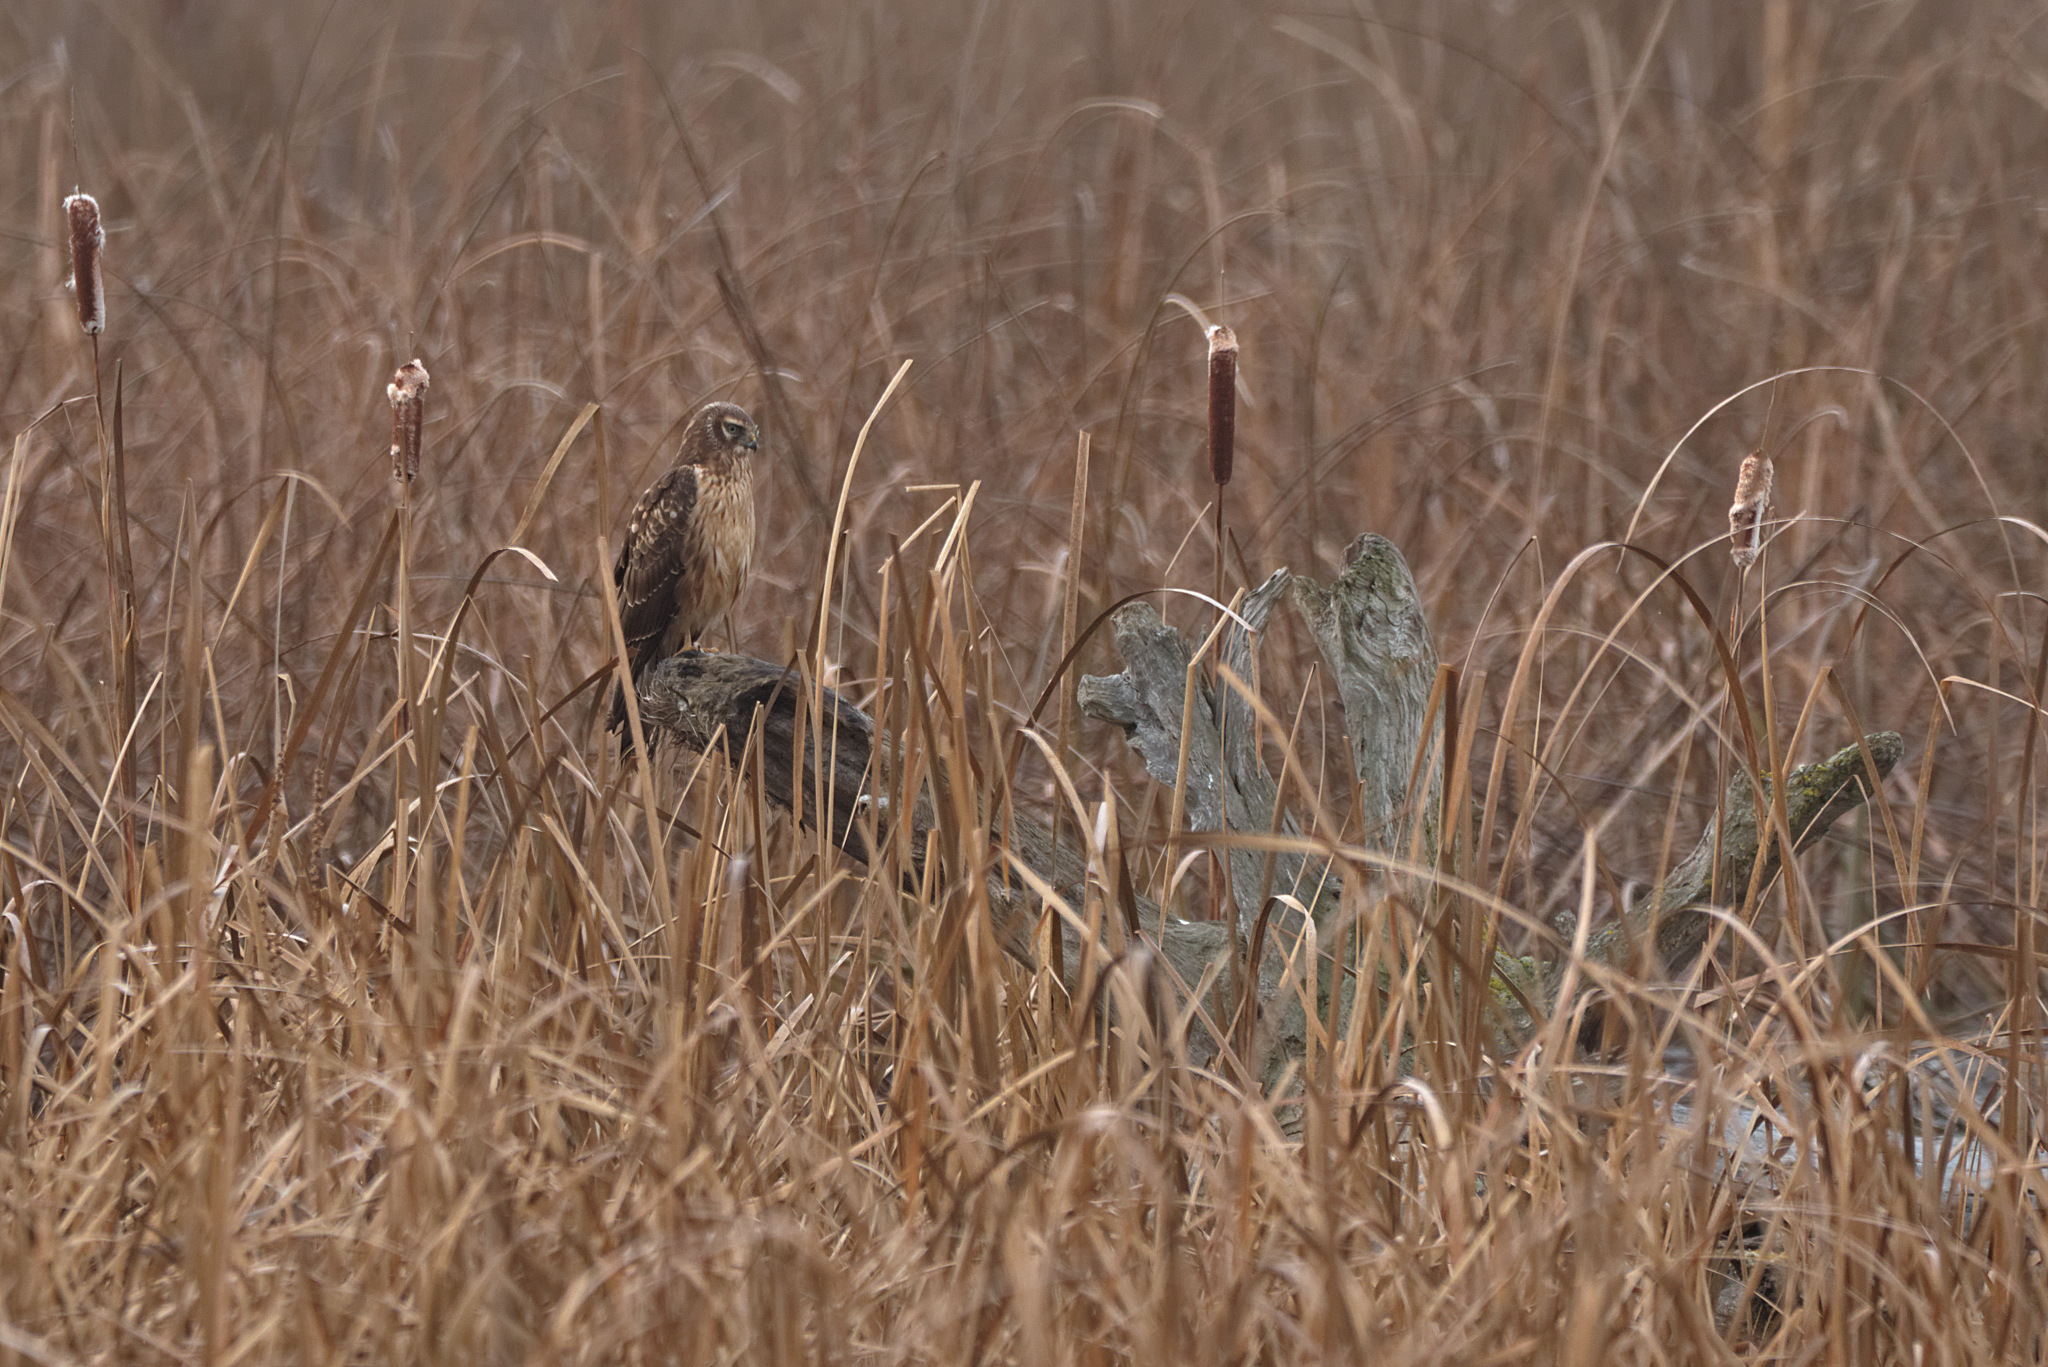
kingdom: Animalia
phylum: Chordata
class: Aves
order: Accipitriformes
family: Accipitridae
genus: Circus
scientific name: Circus cyaneus
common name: Hen harrier
